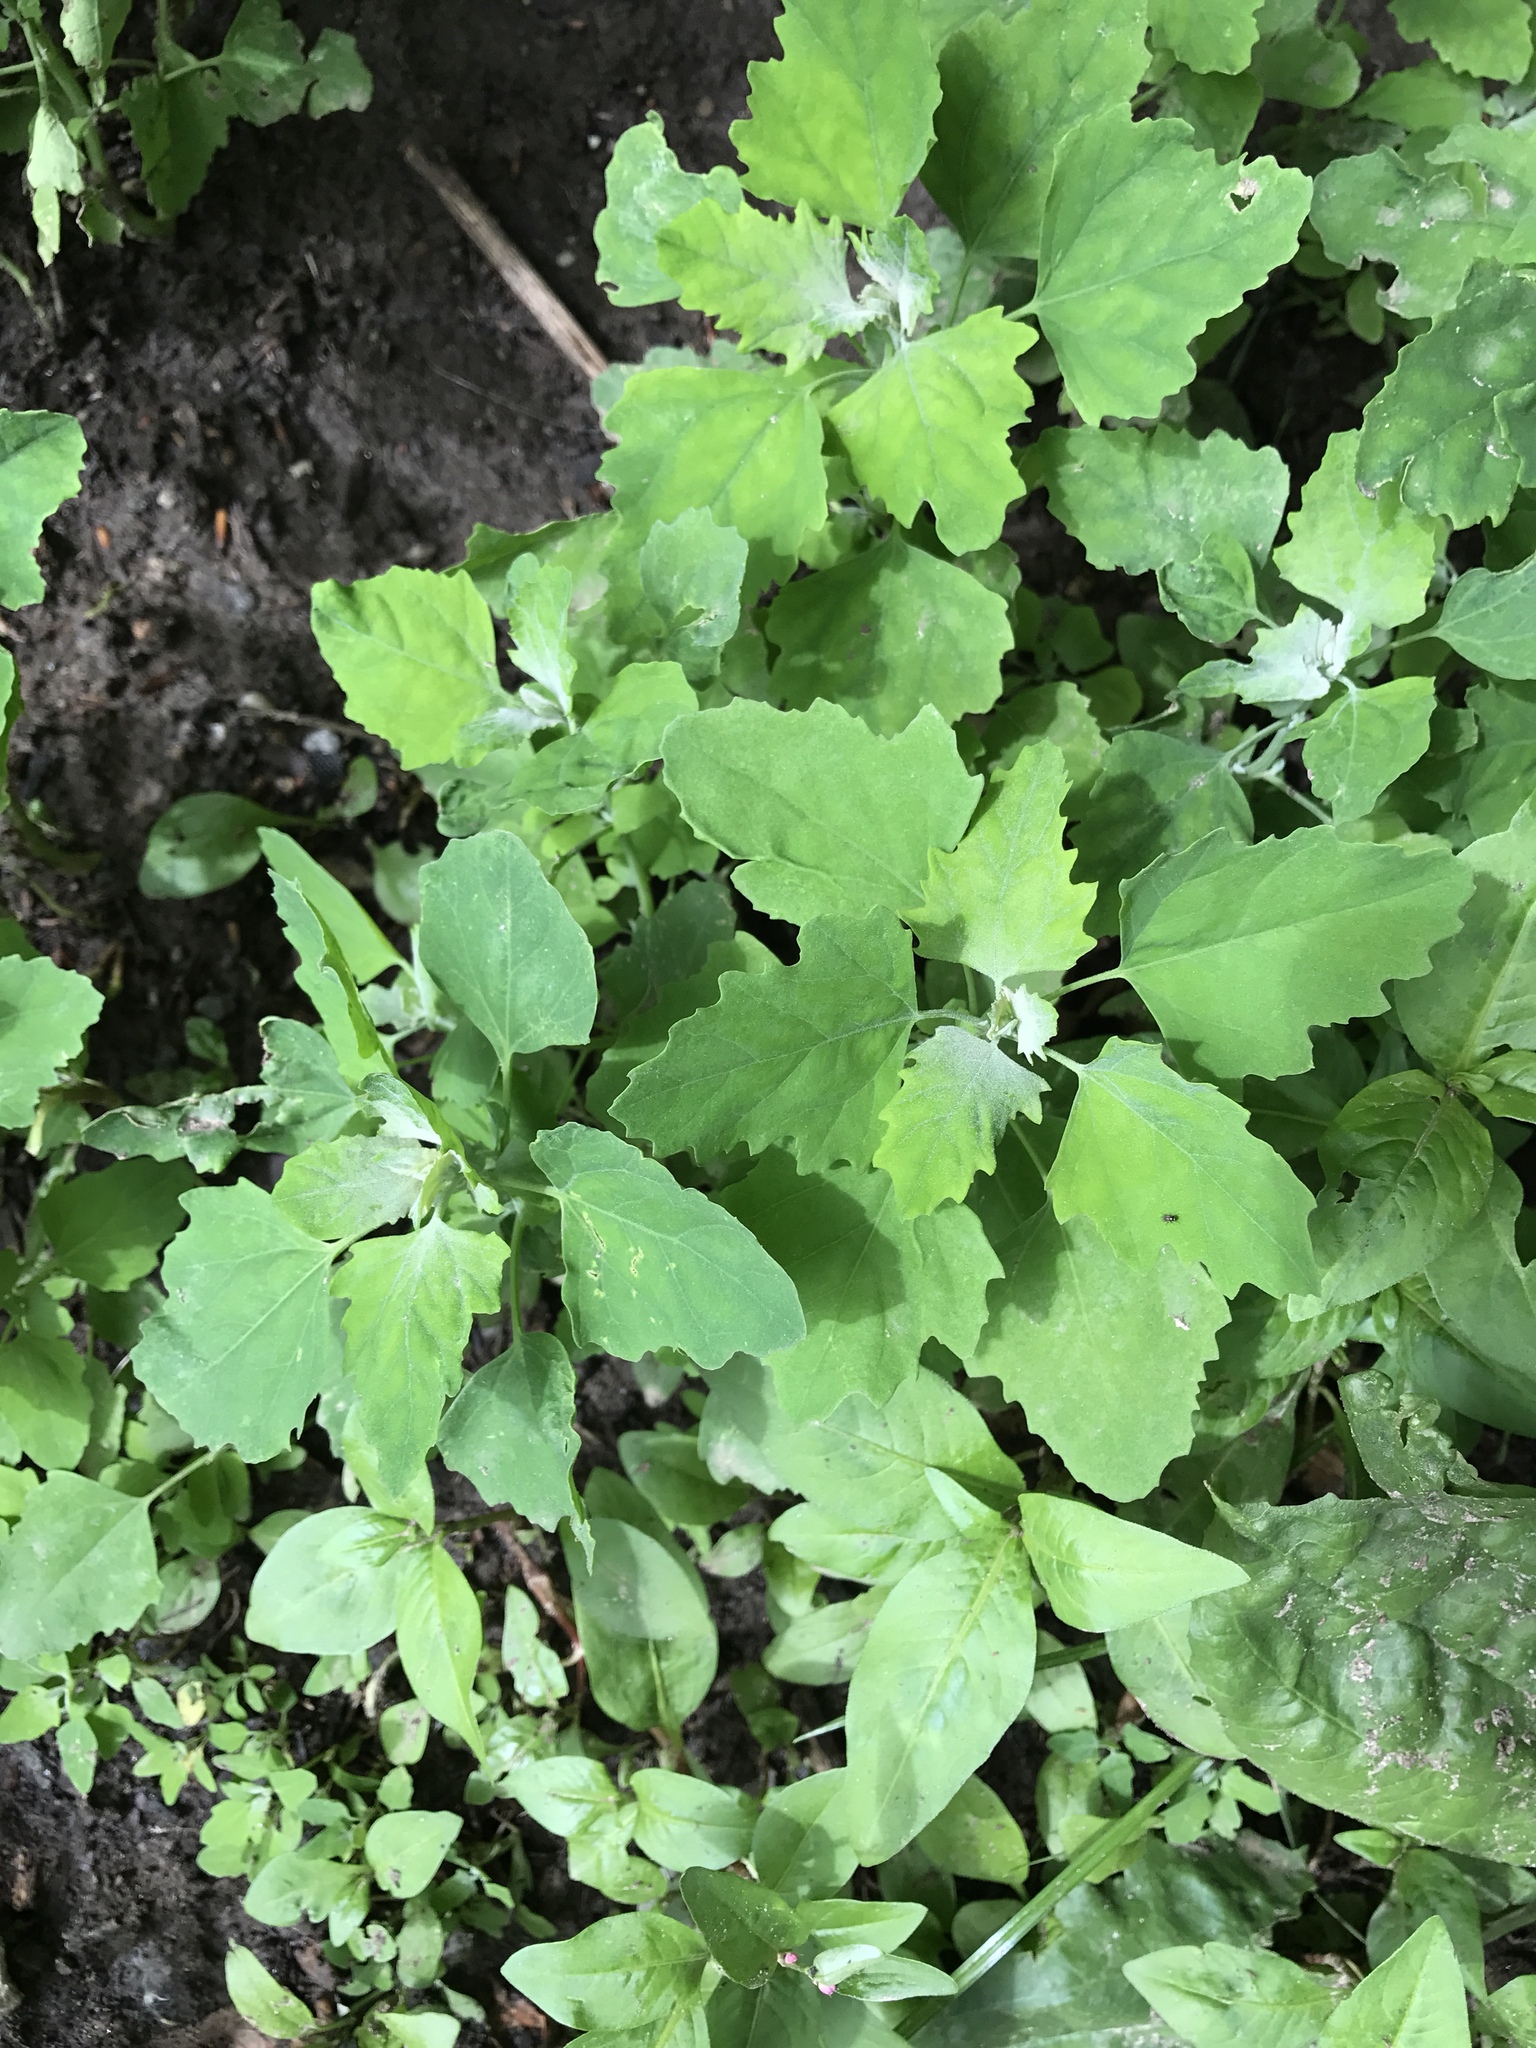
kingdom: Plantae
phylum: Tracheophyta
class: Magnoliopsida
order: Caryophyllales
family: Amaranthaceae
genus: Chenopodium
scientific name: Chenopodium album
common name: Fat-hen
